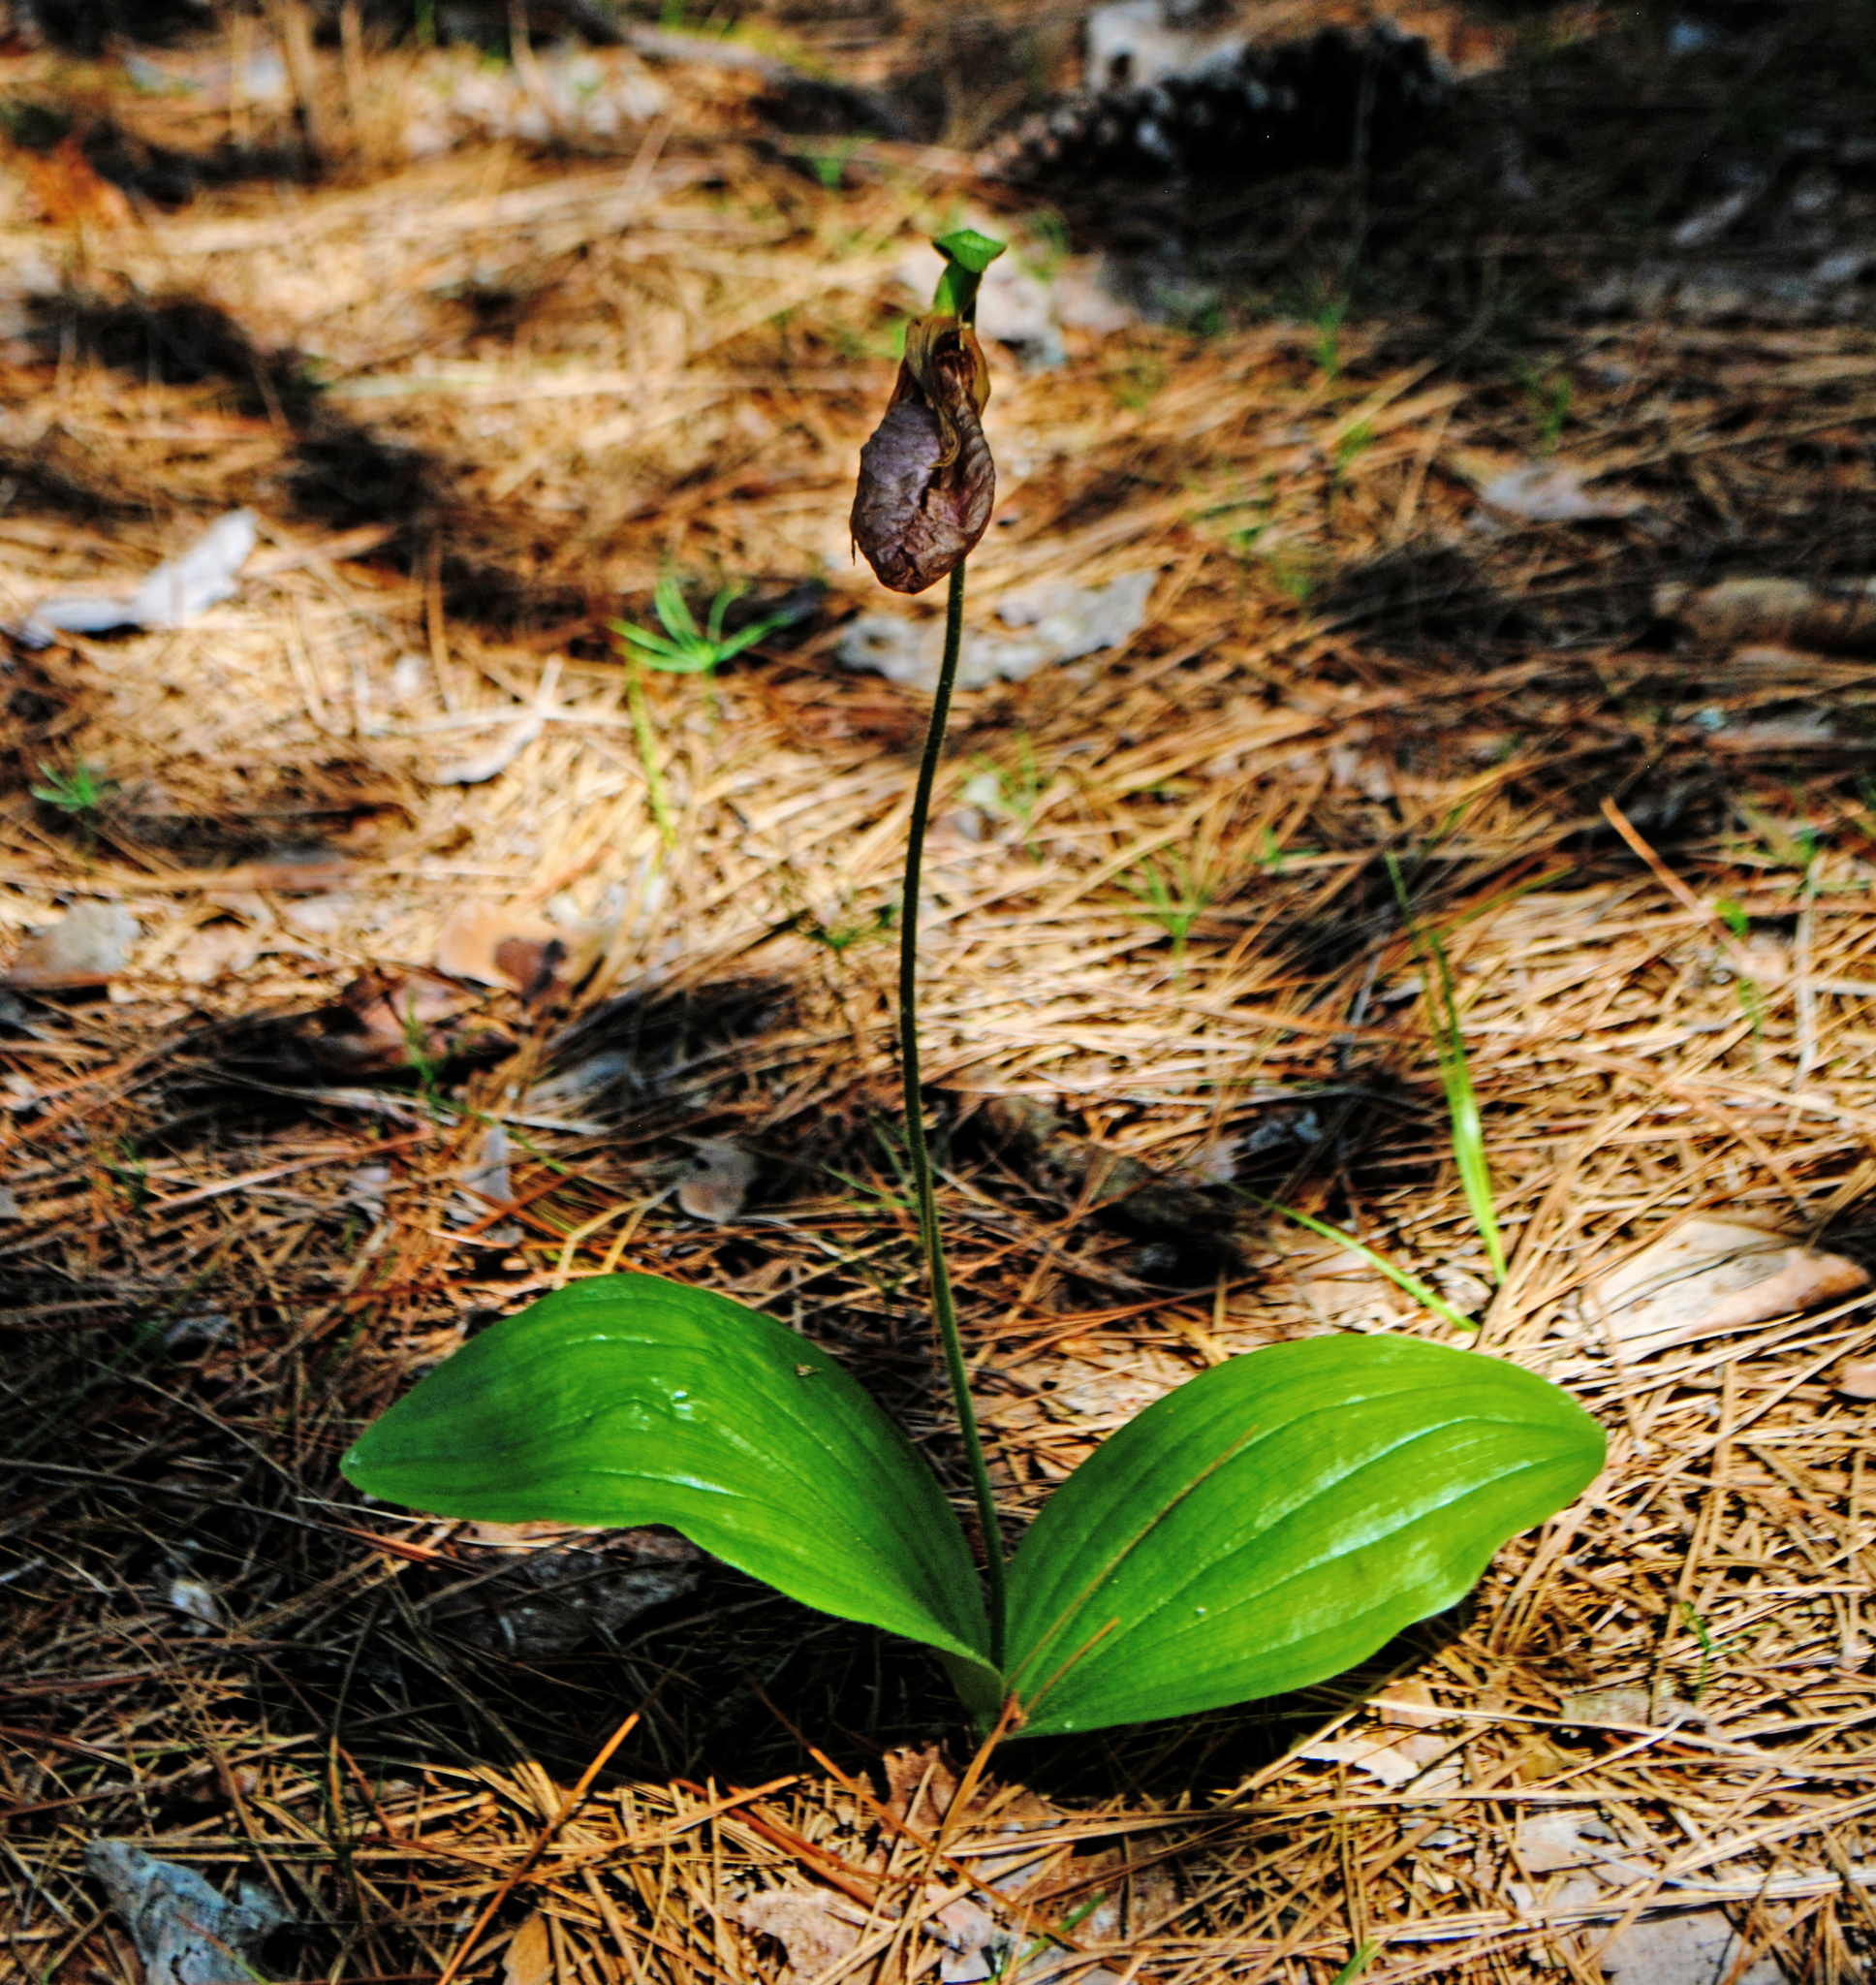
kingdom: Plantae
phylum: Tracheophyta
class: Liliopsida
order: Asparagales
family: Orchidaceae
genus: Cypripedium
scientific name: Cypripedium acaule
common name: Pink lady's-slipper
